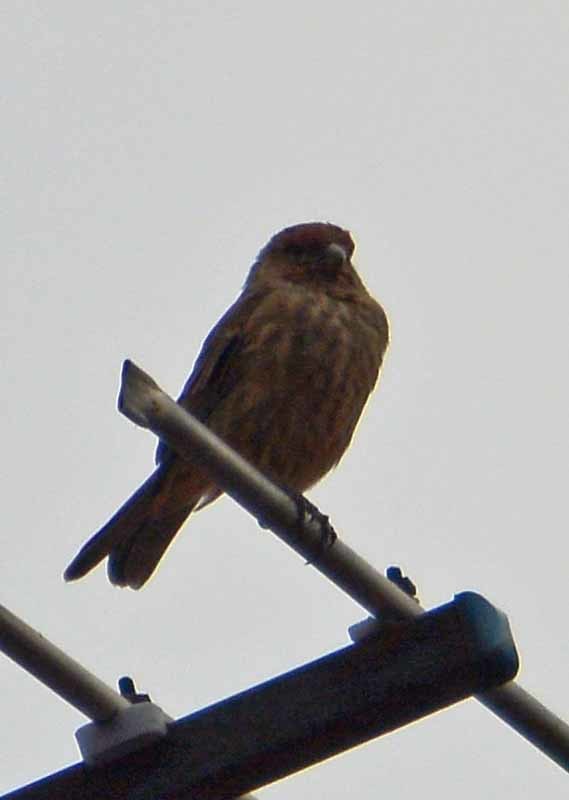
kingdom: Animalia
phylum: Chordata
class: Aves
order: Passeriformes
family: Fringillidae
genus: Haemorhous
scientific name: Haemorhous mexicanus
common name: House finch
